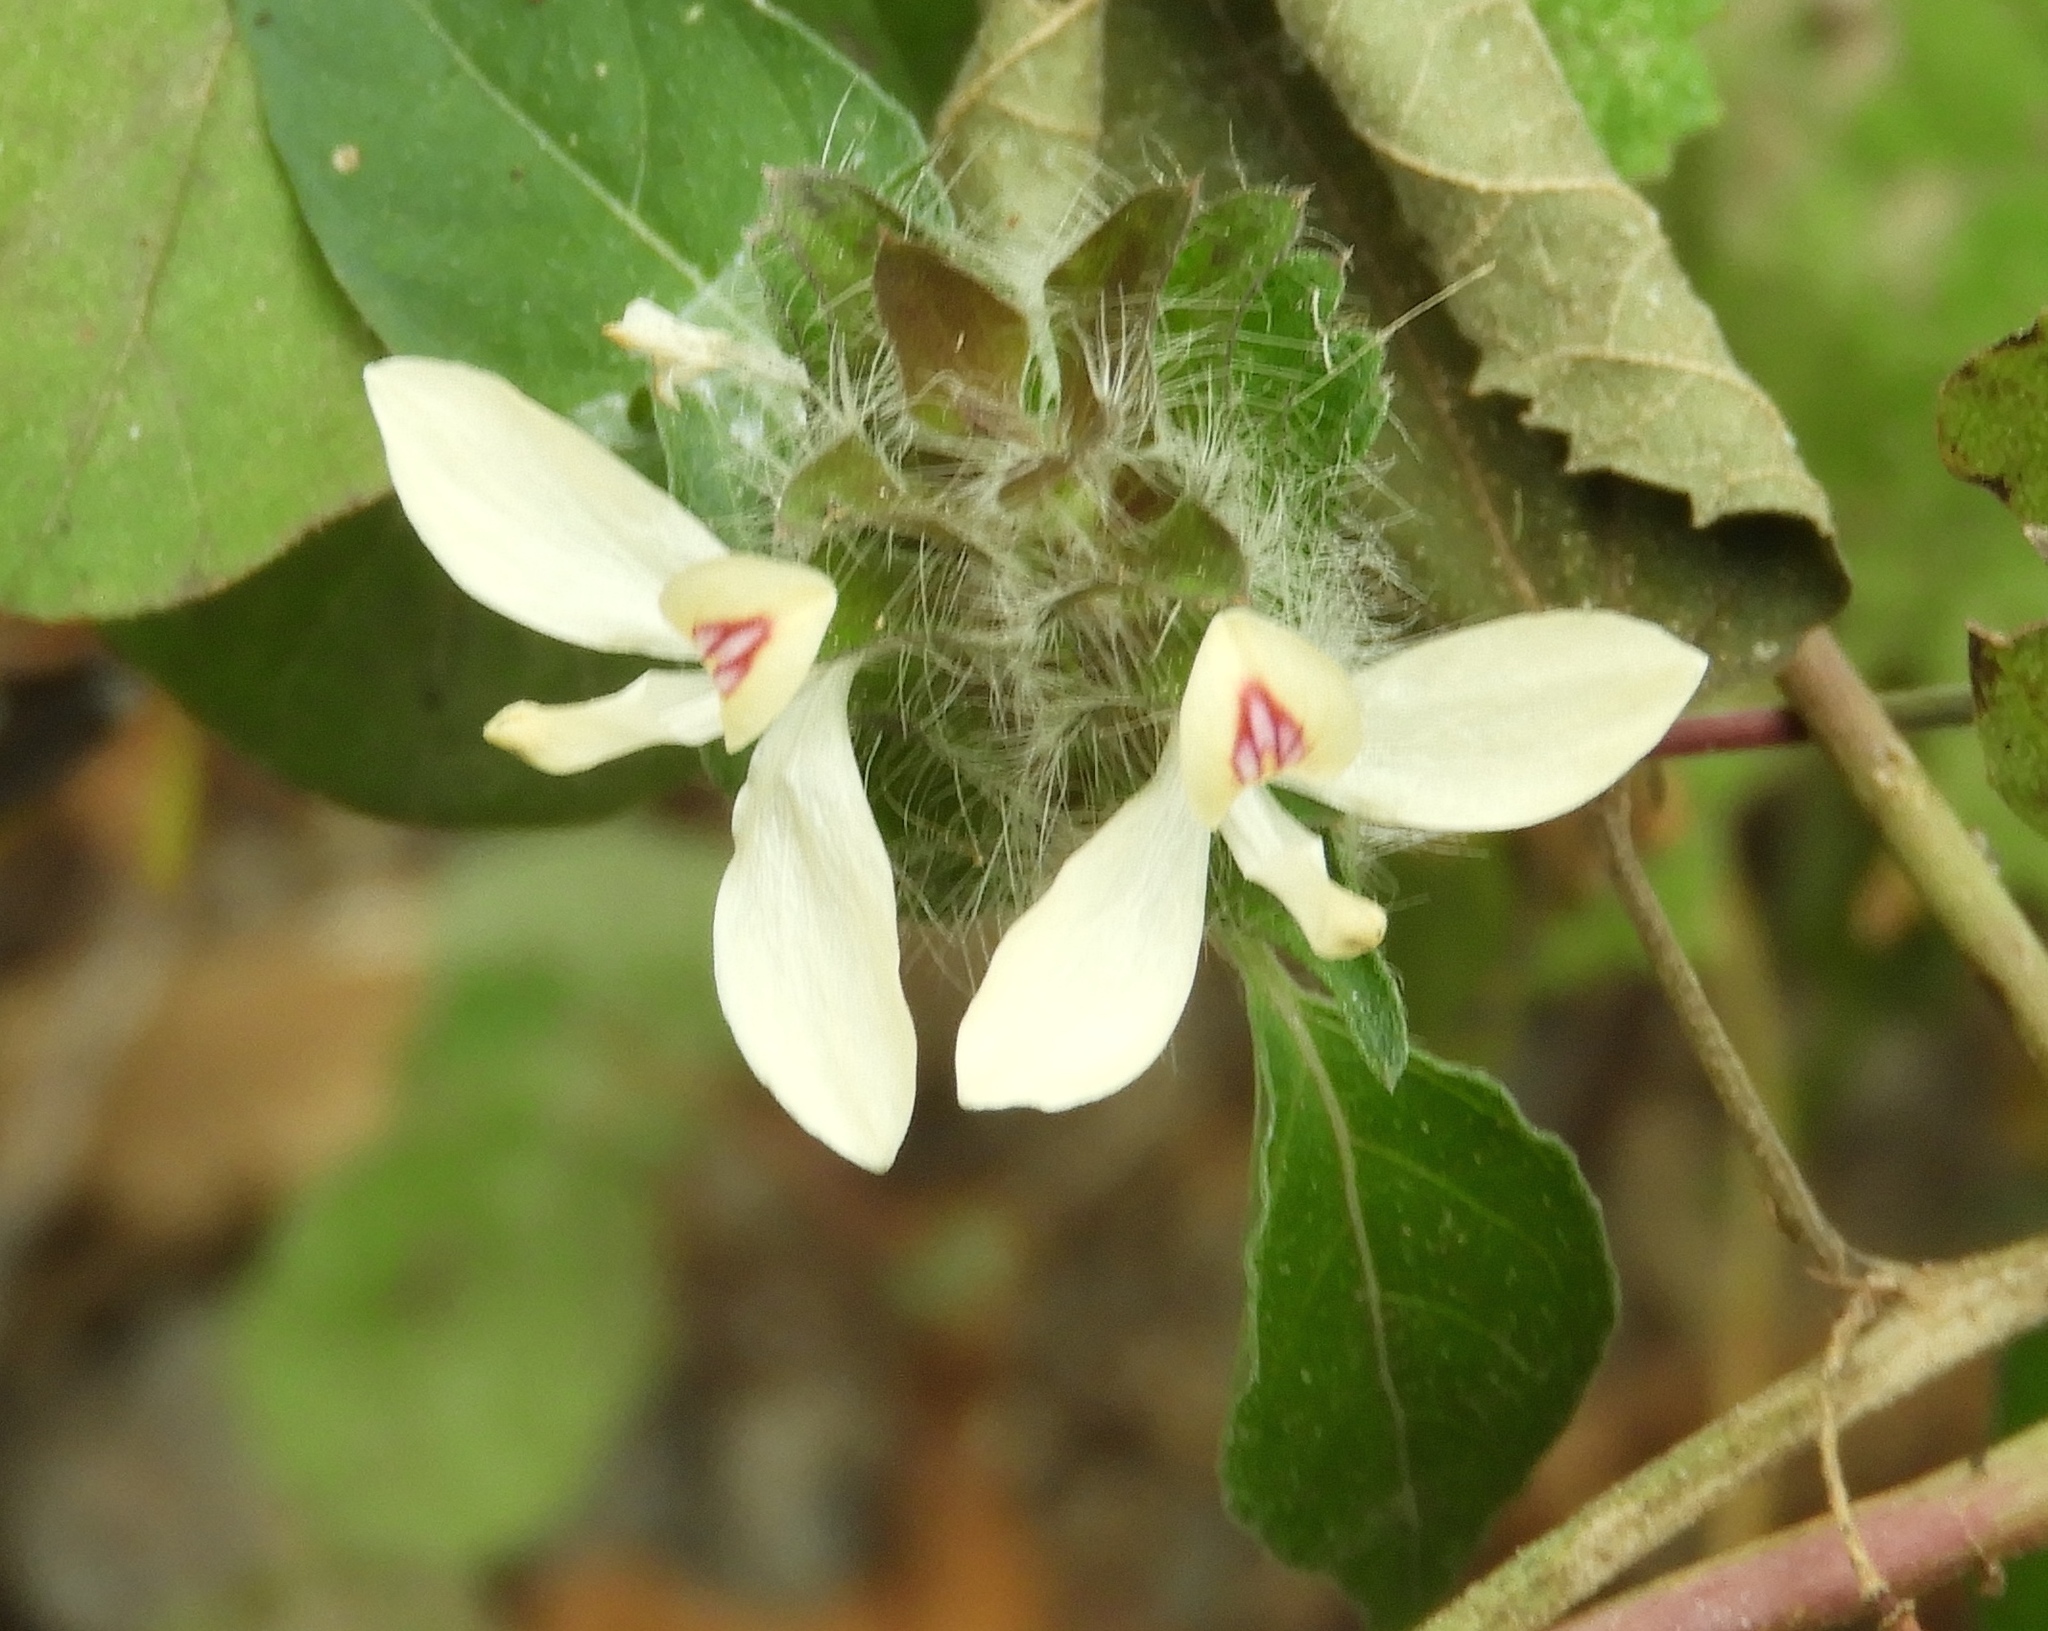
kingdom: Plantae
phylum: Tracheophyta
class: Magnoliopsida
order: Lamiales
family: Acanthaceae
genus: Carlowrightia
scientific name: Carlowrightia arizonica
